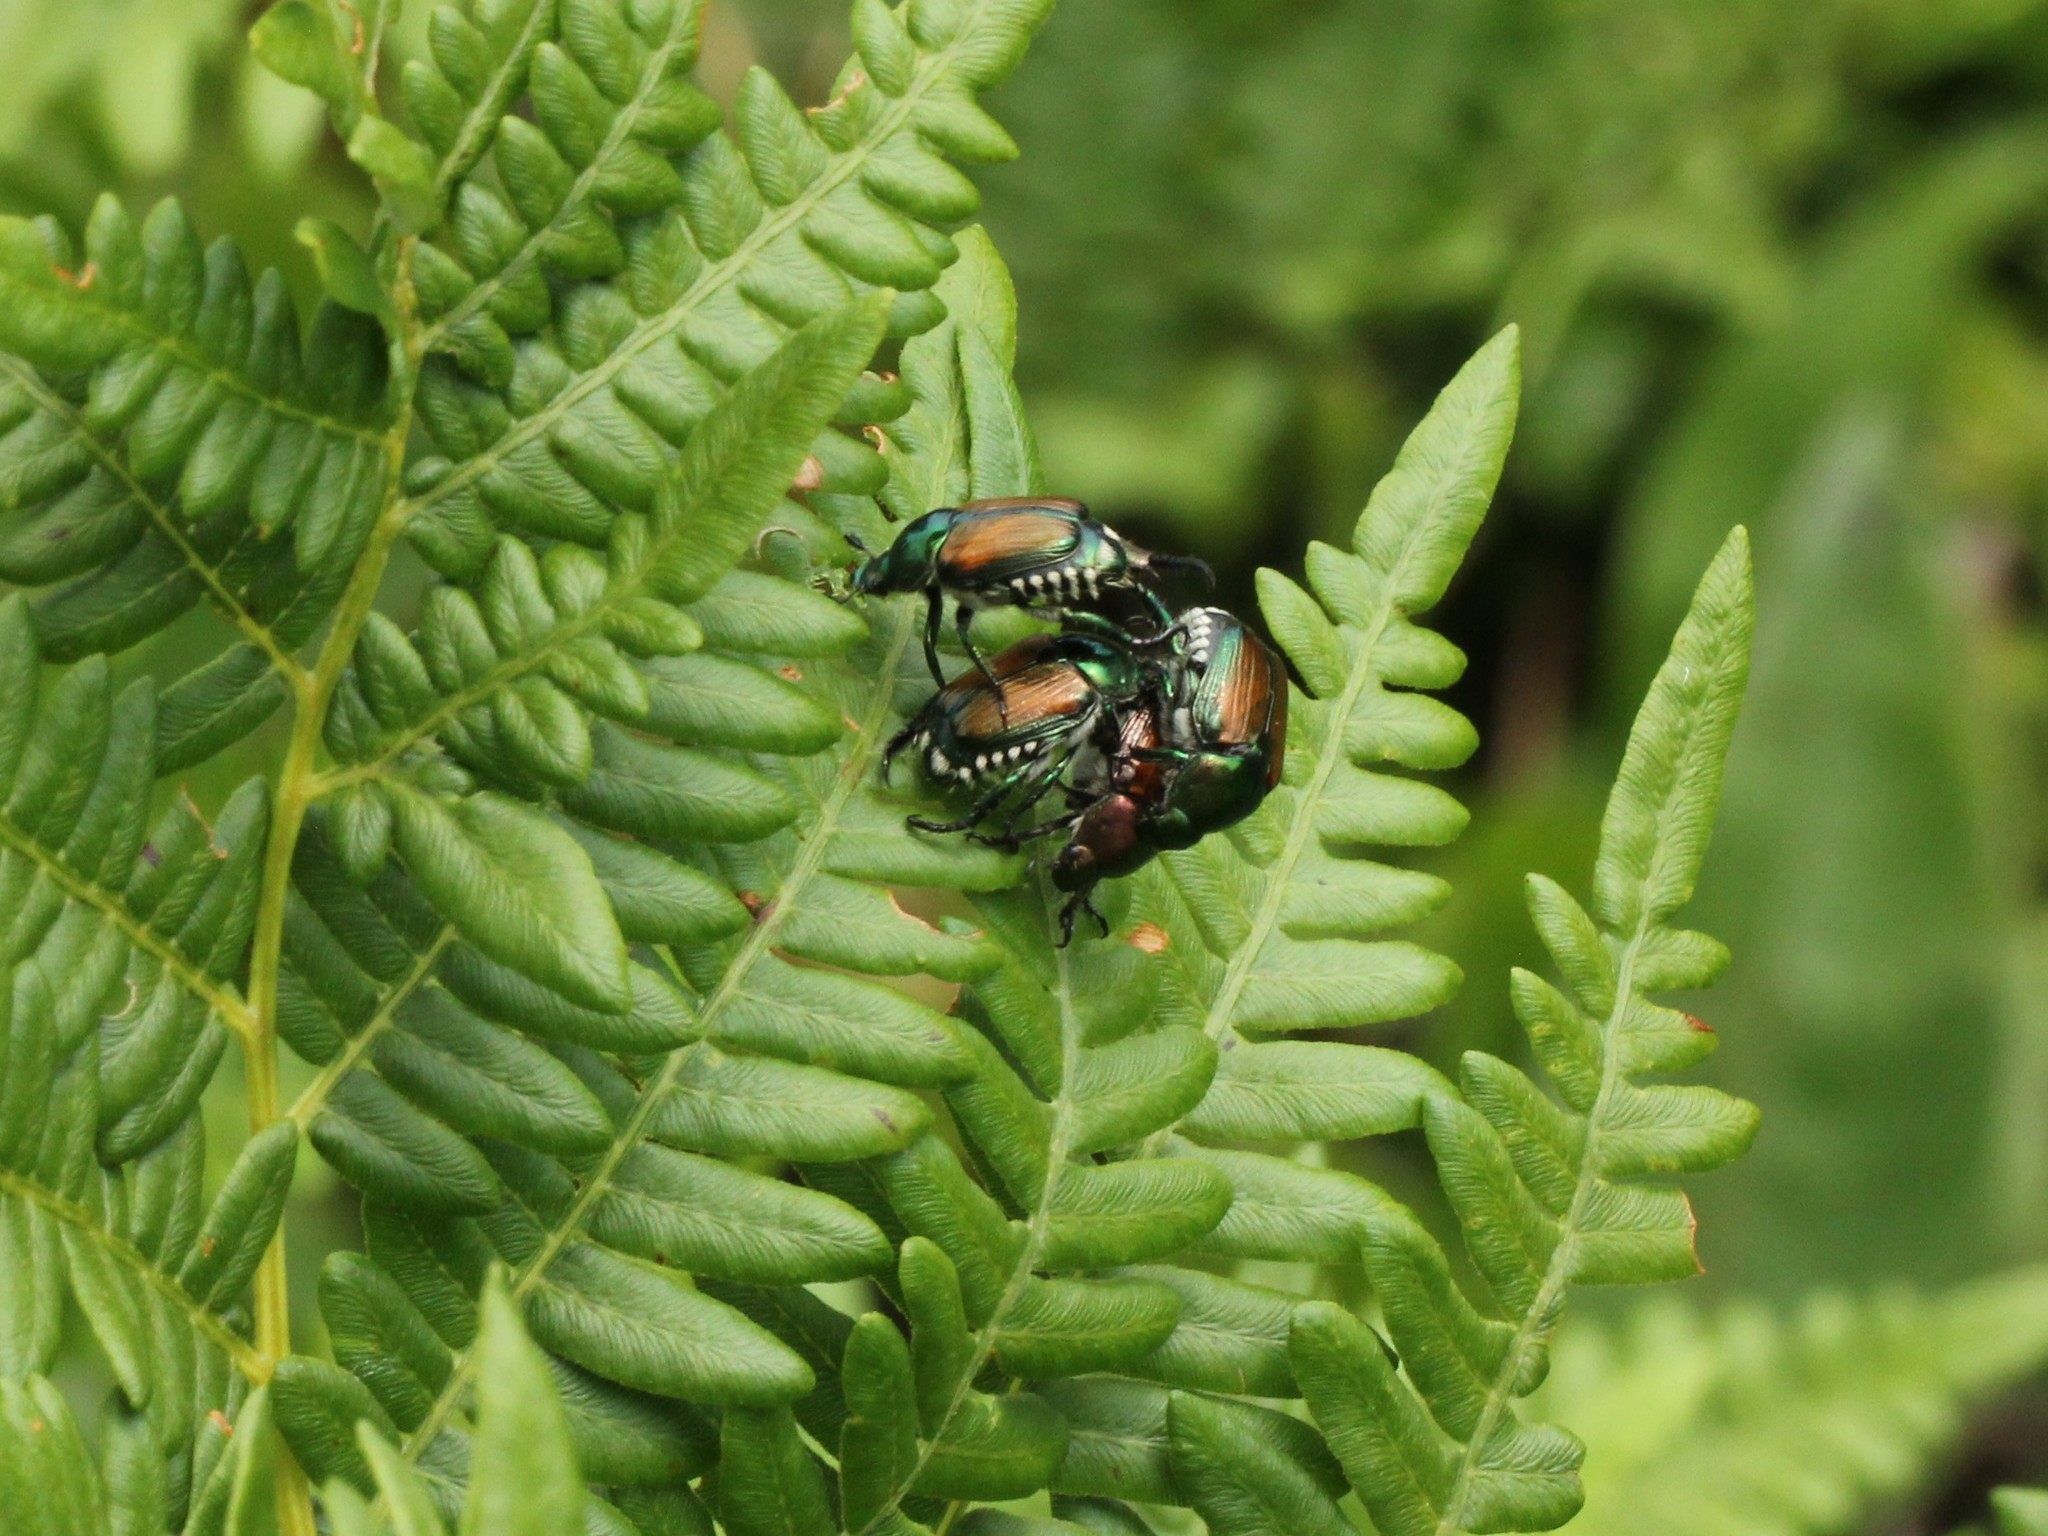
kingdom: Animalia
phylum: Arthropoda
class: Insecta
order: Coleoptera
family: Scarabaeidae
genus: Popillia
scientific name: Popillia japonica
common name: Japanese beetle
